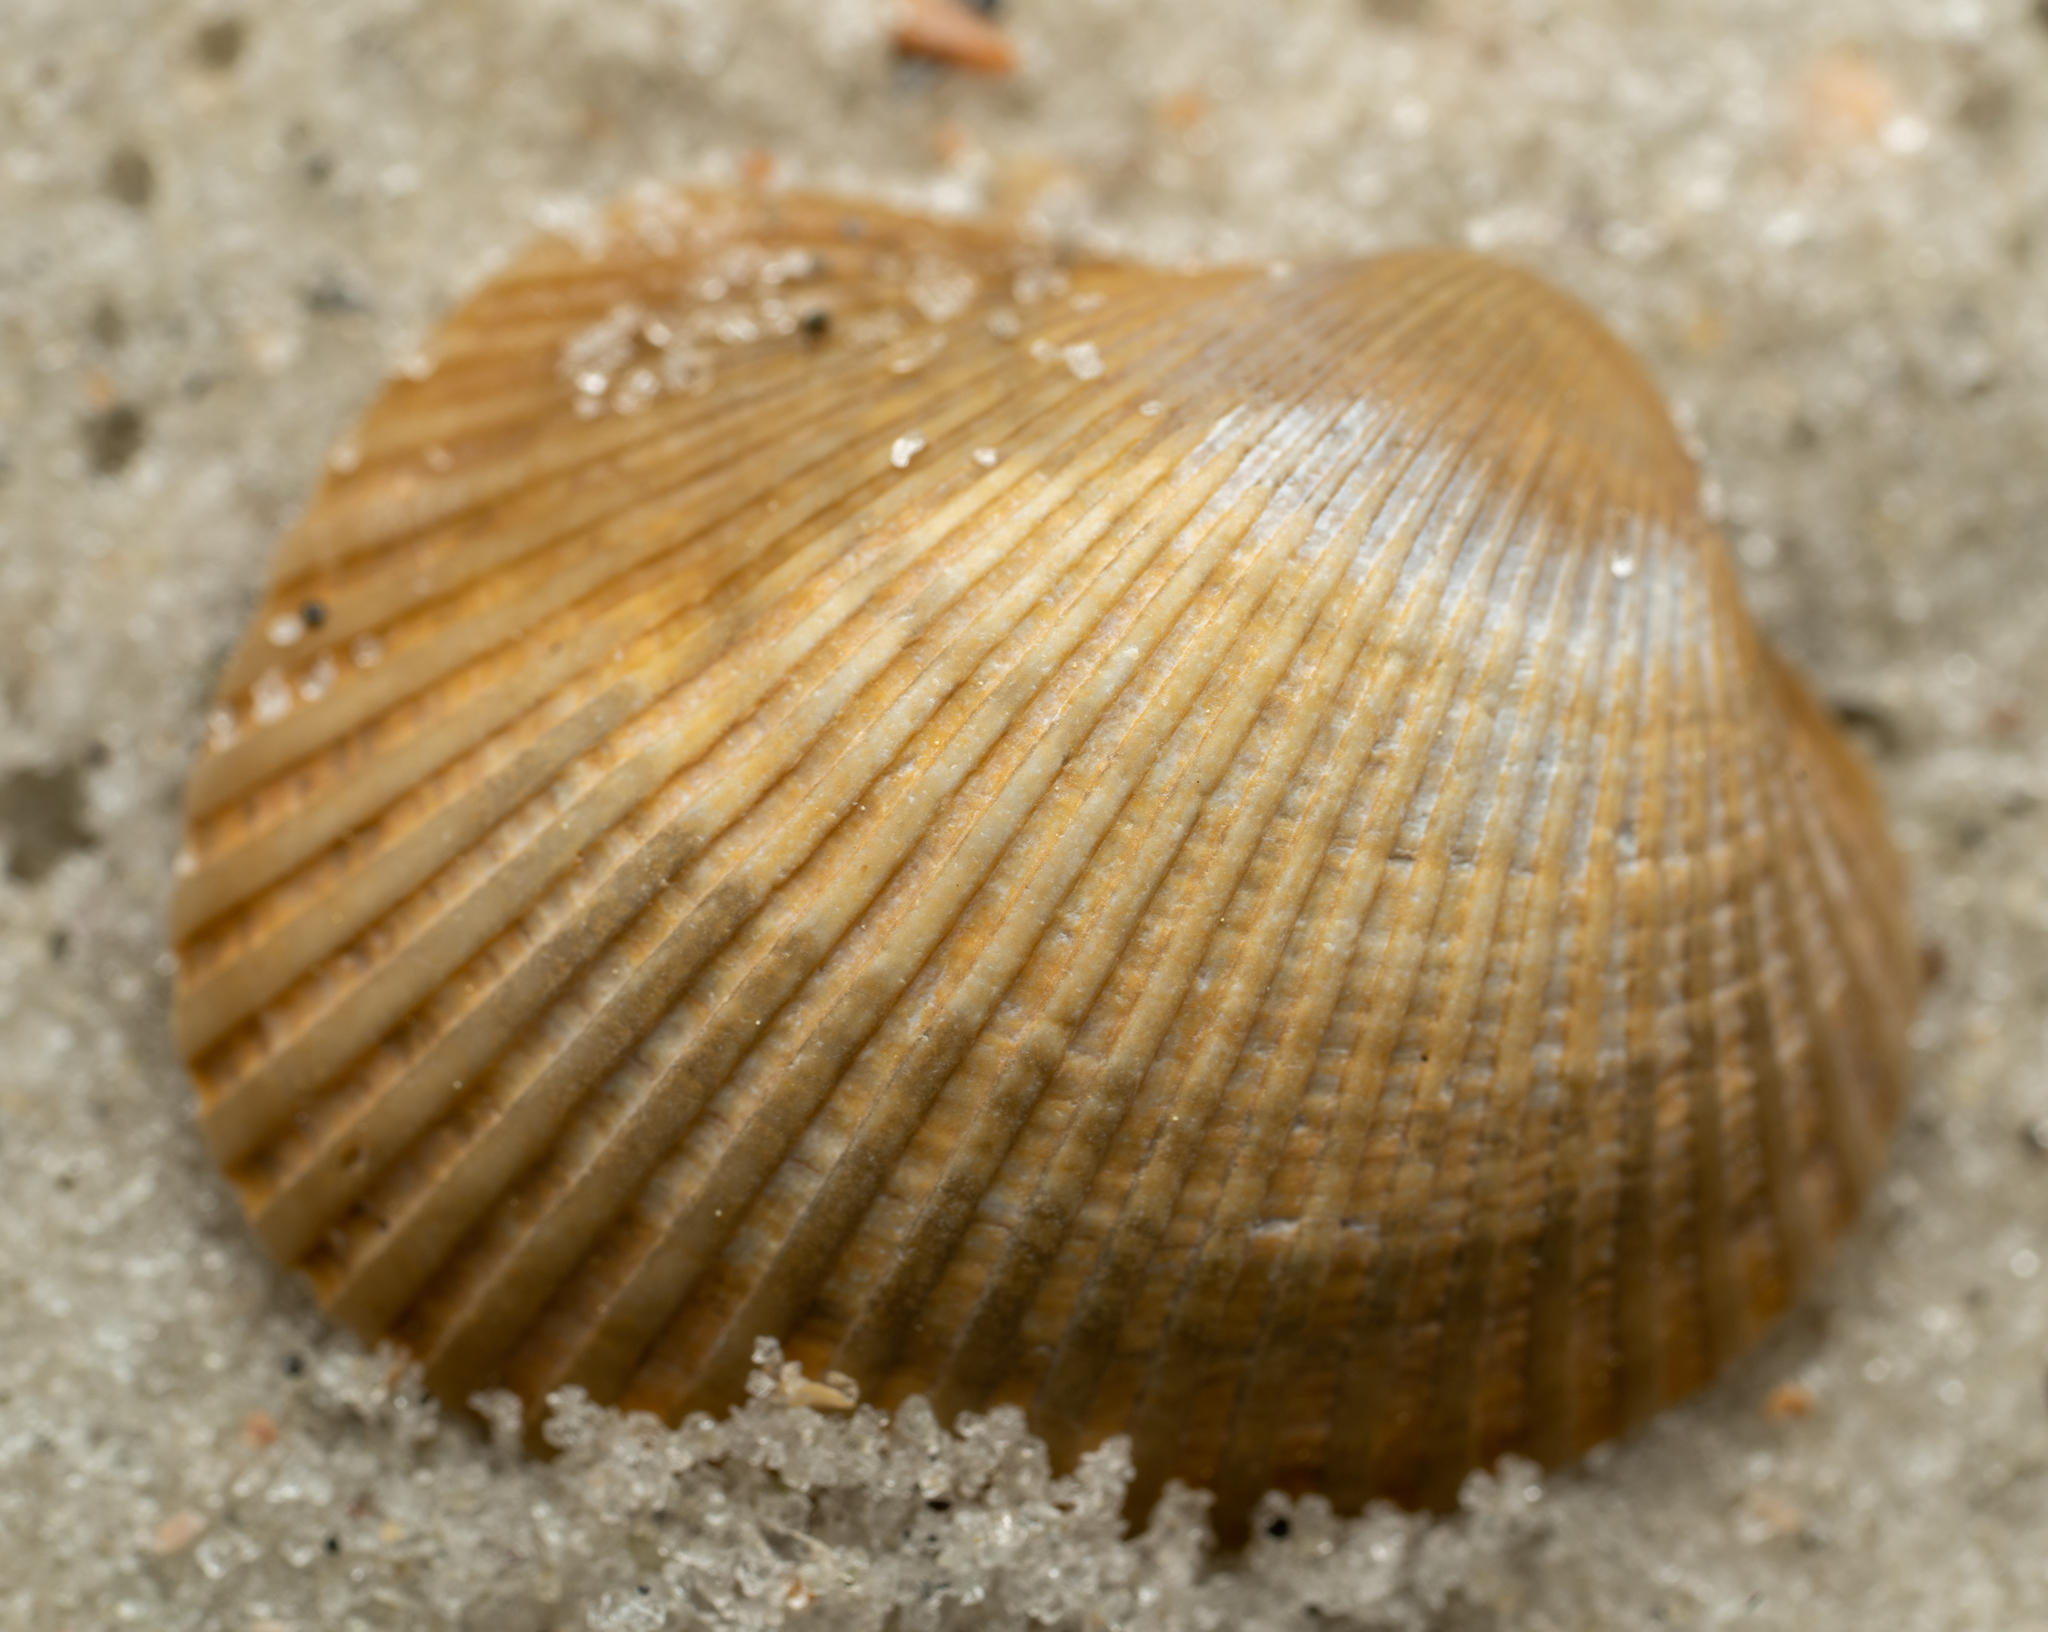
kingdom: Animalia
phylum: Mollusca
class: Bivalvia
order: Arcida
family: Arcidae
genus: Lunarca
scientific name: Lunarca ovalis
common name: Blood ark
